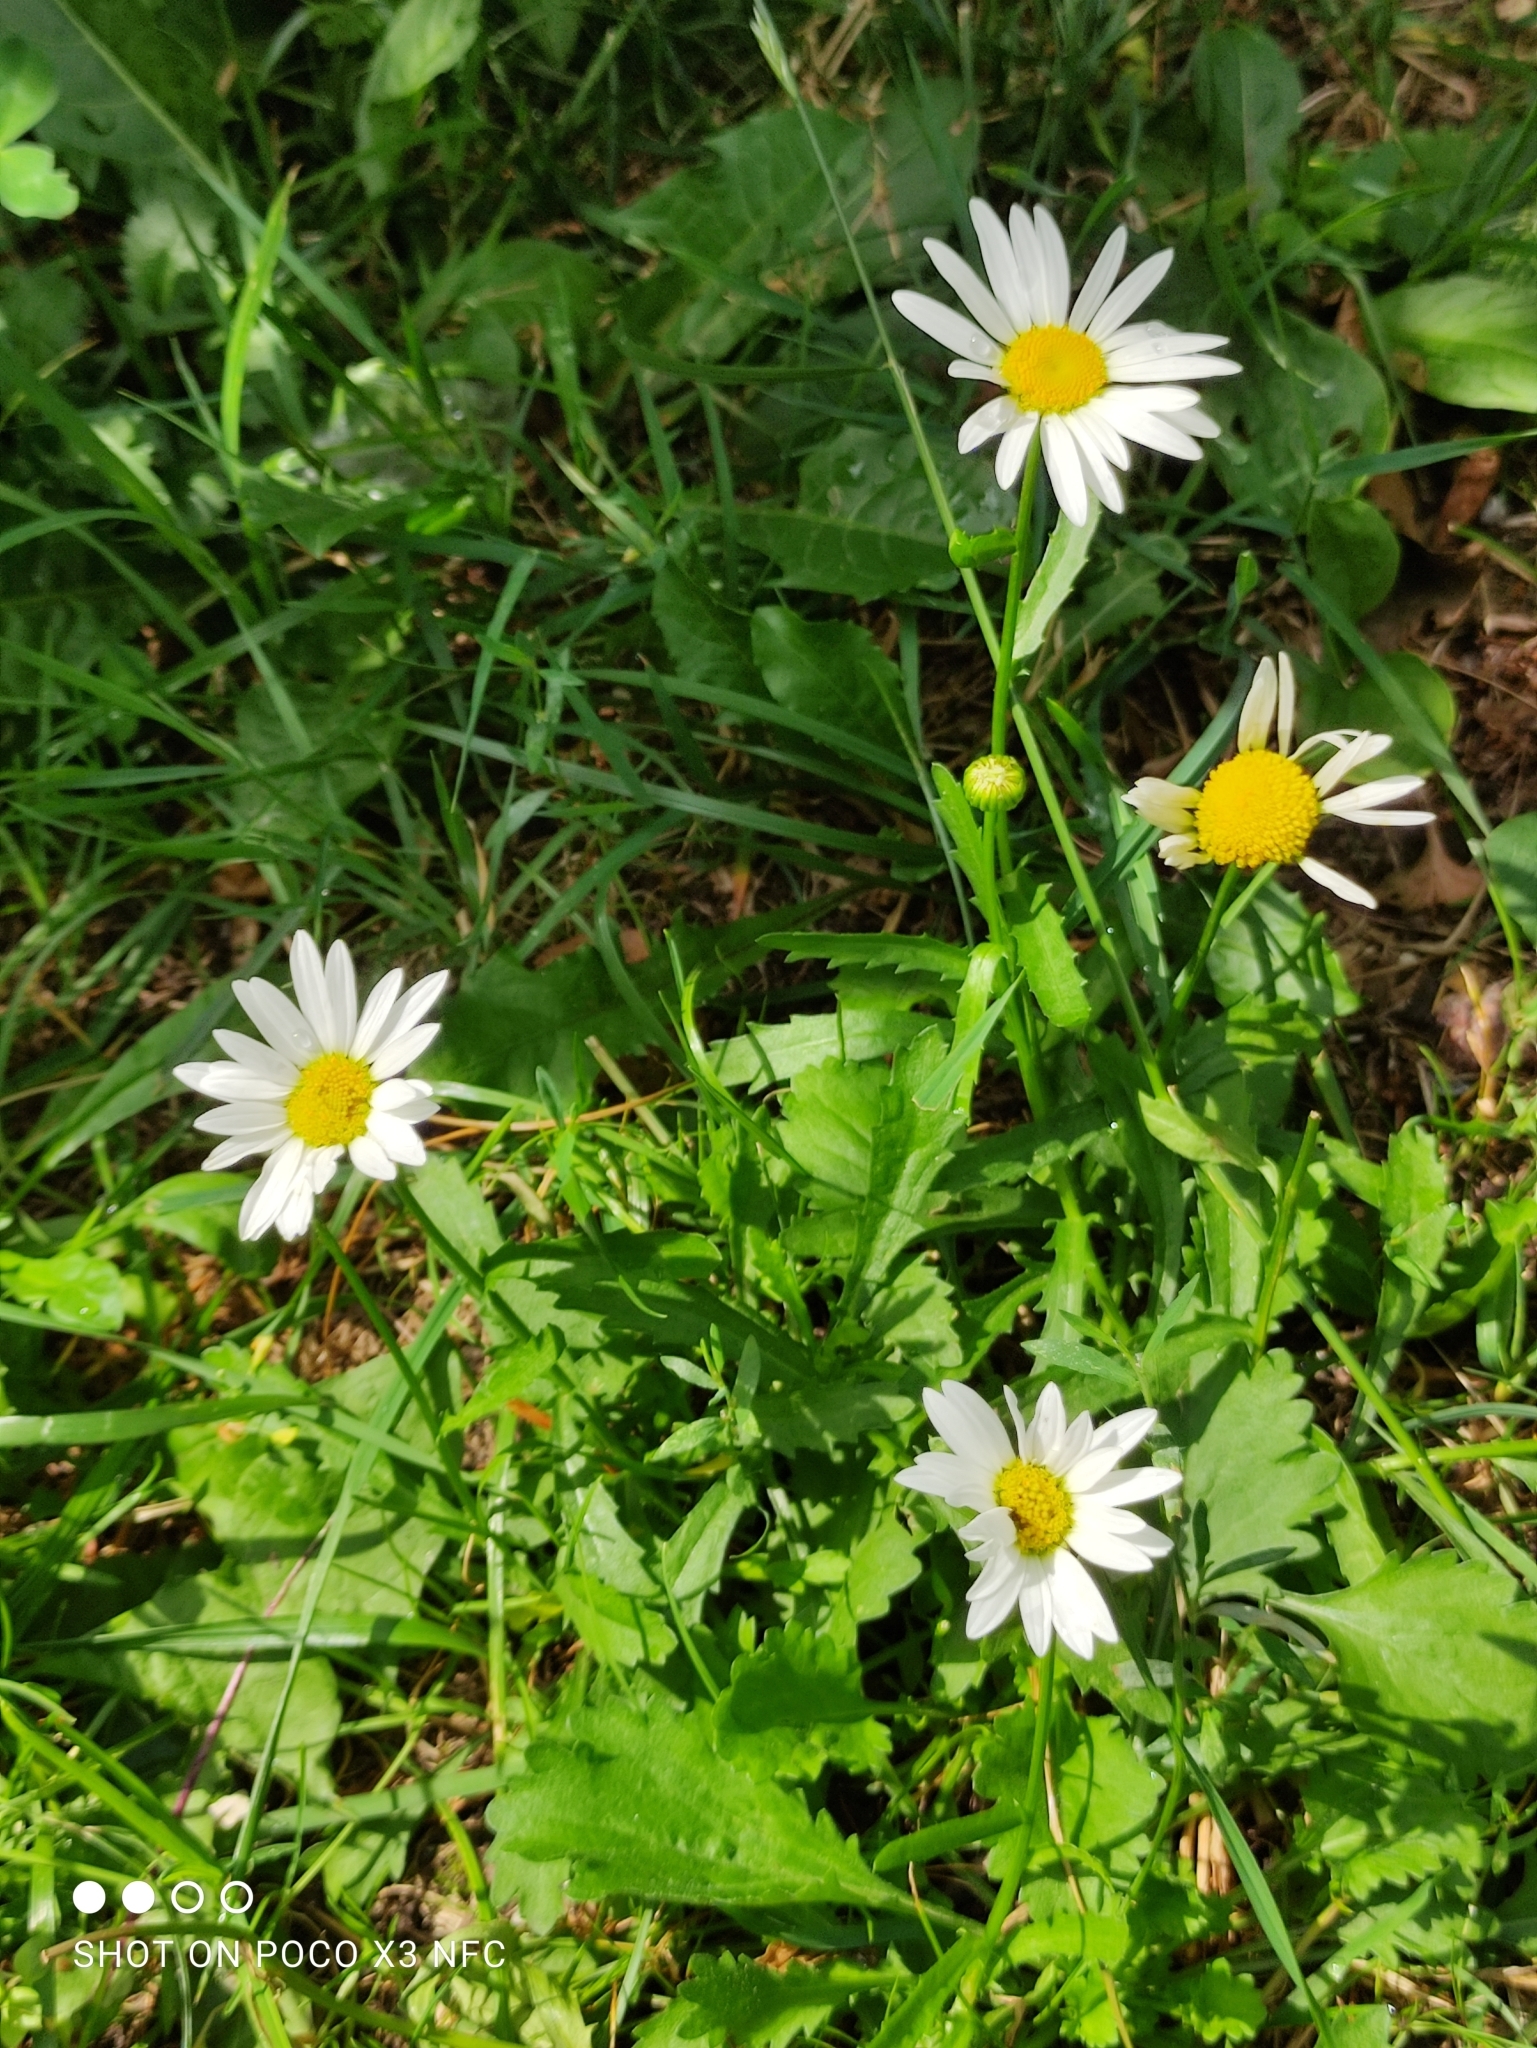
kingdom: Plantae
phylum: Tracheophyta
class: Magnoliopsida
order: Asterales
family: Asteraceae
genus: Leucanthemum
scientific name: Leucanthemum vulgare
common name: Oxeye daisy
